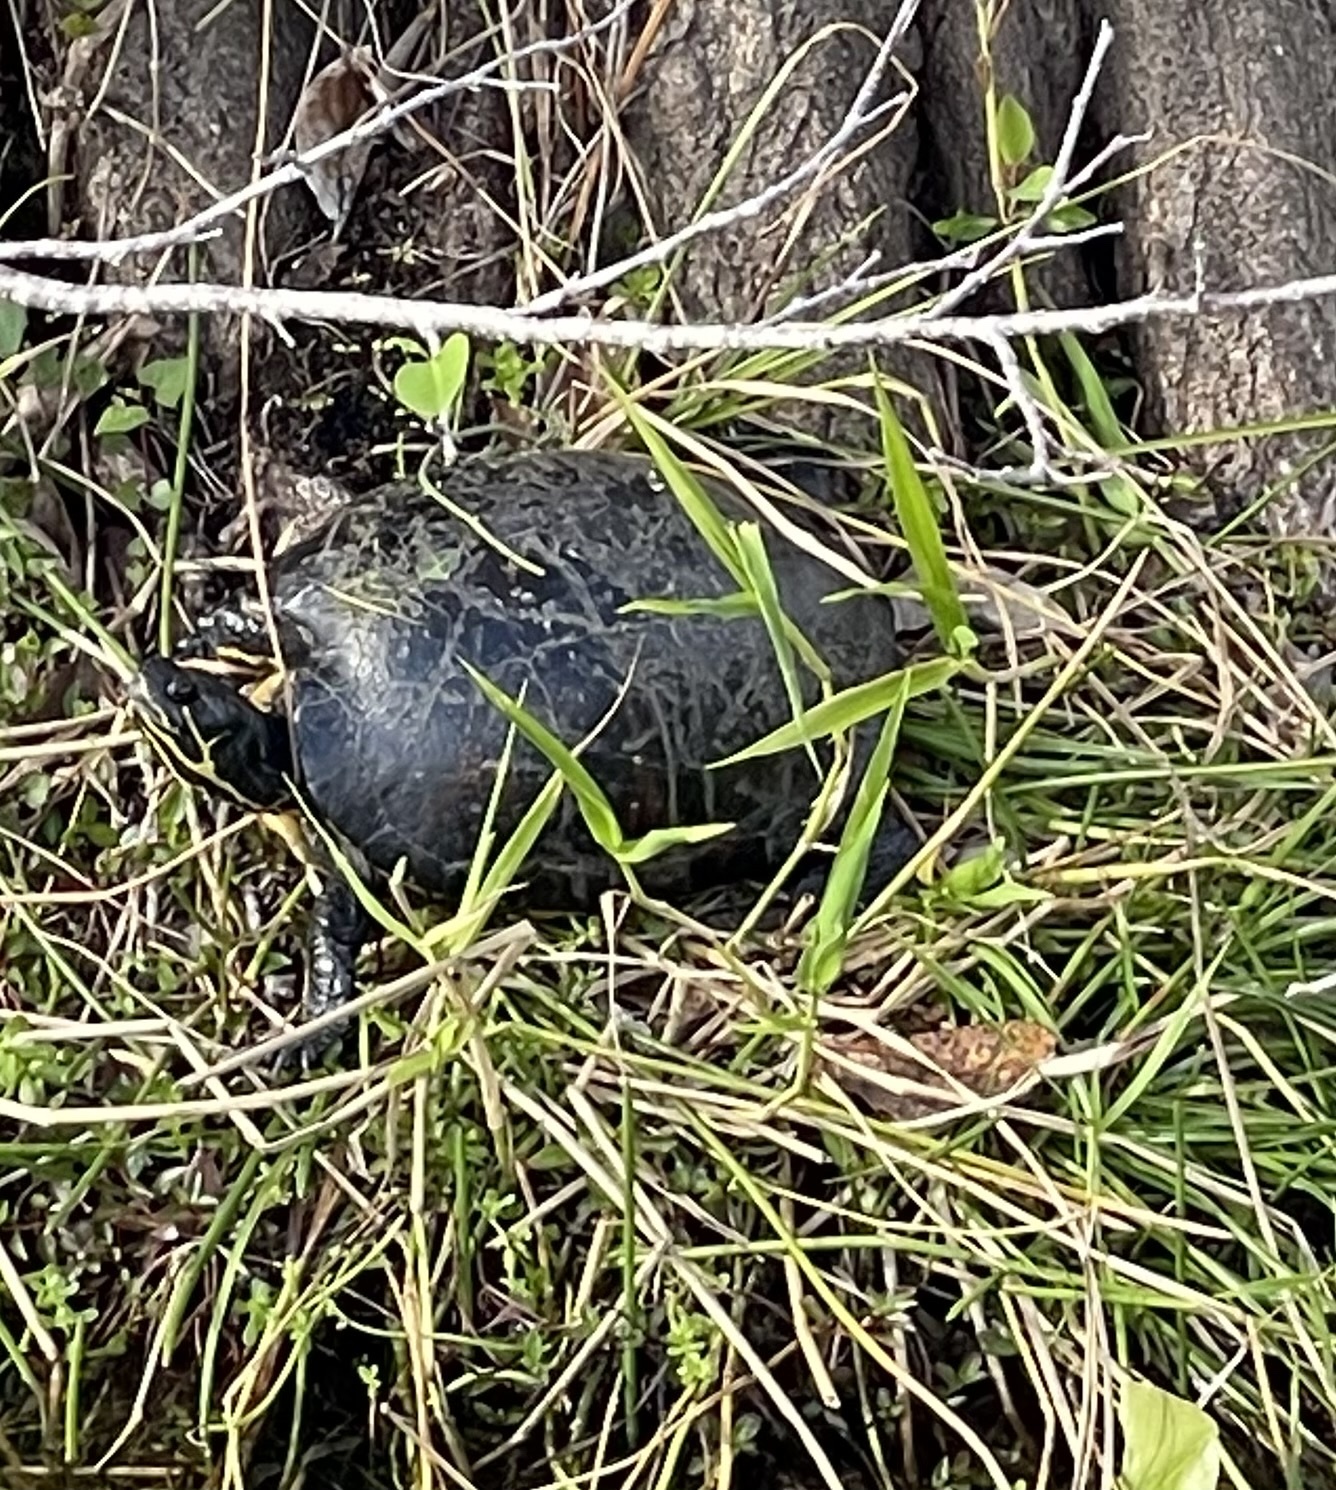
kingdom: Animalia
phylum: Chordata
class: Testudines
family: Emydidae
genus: Pseudemys
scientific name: Pseudemys peninsularis
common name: Peninsula cooter
